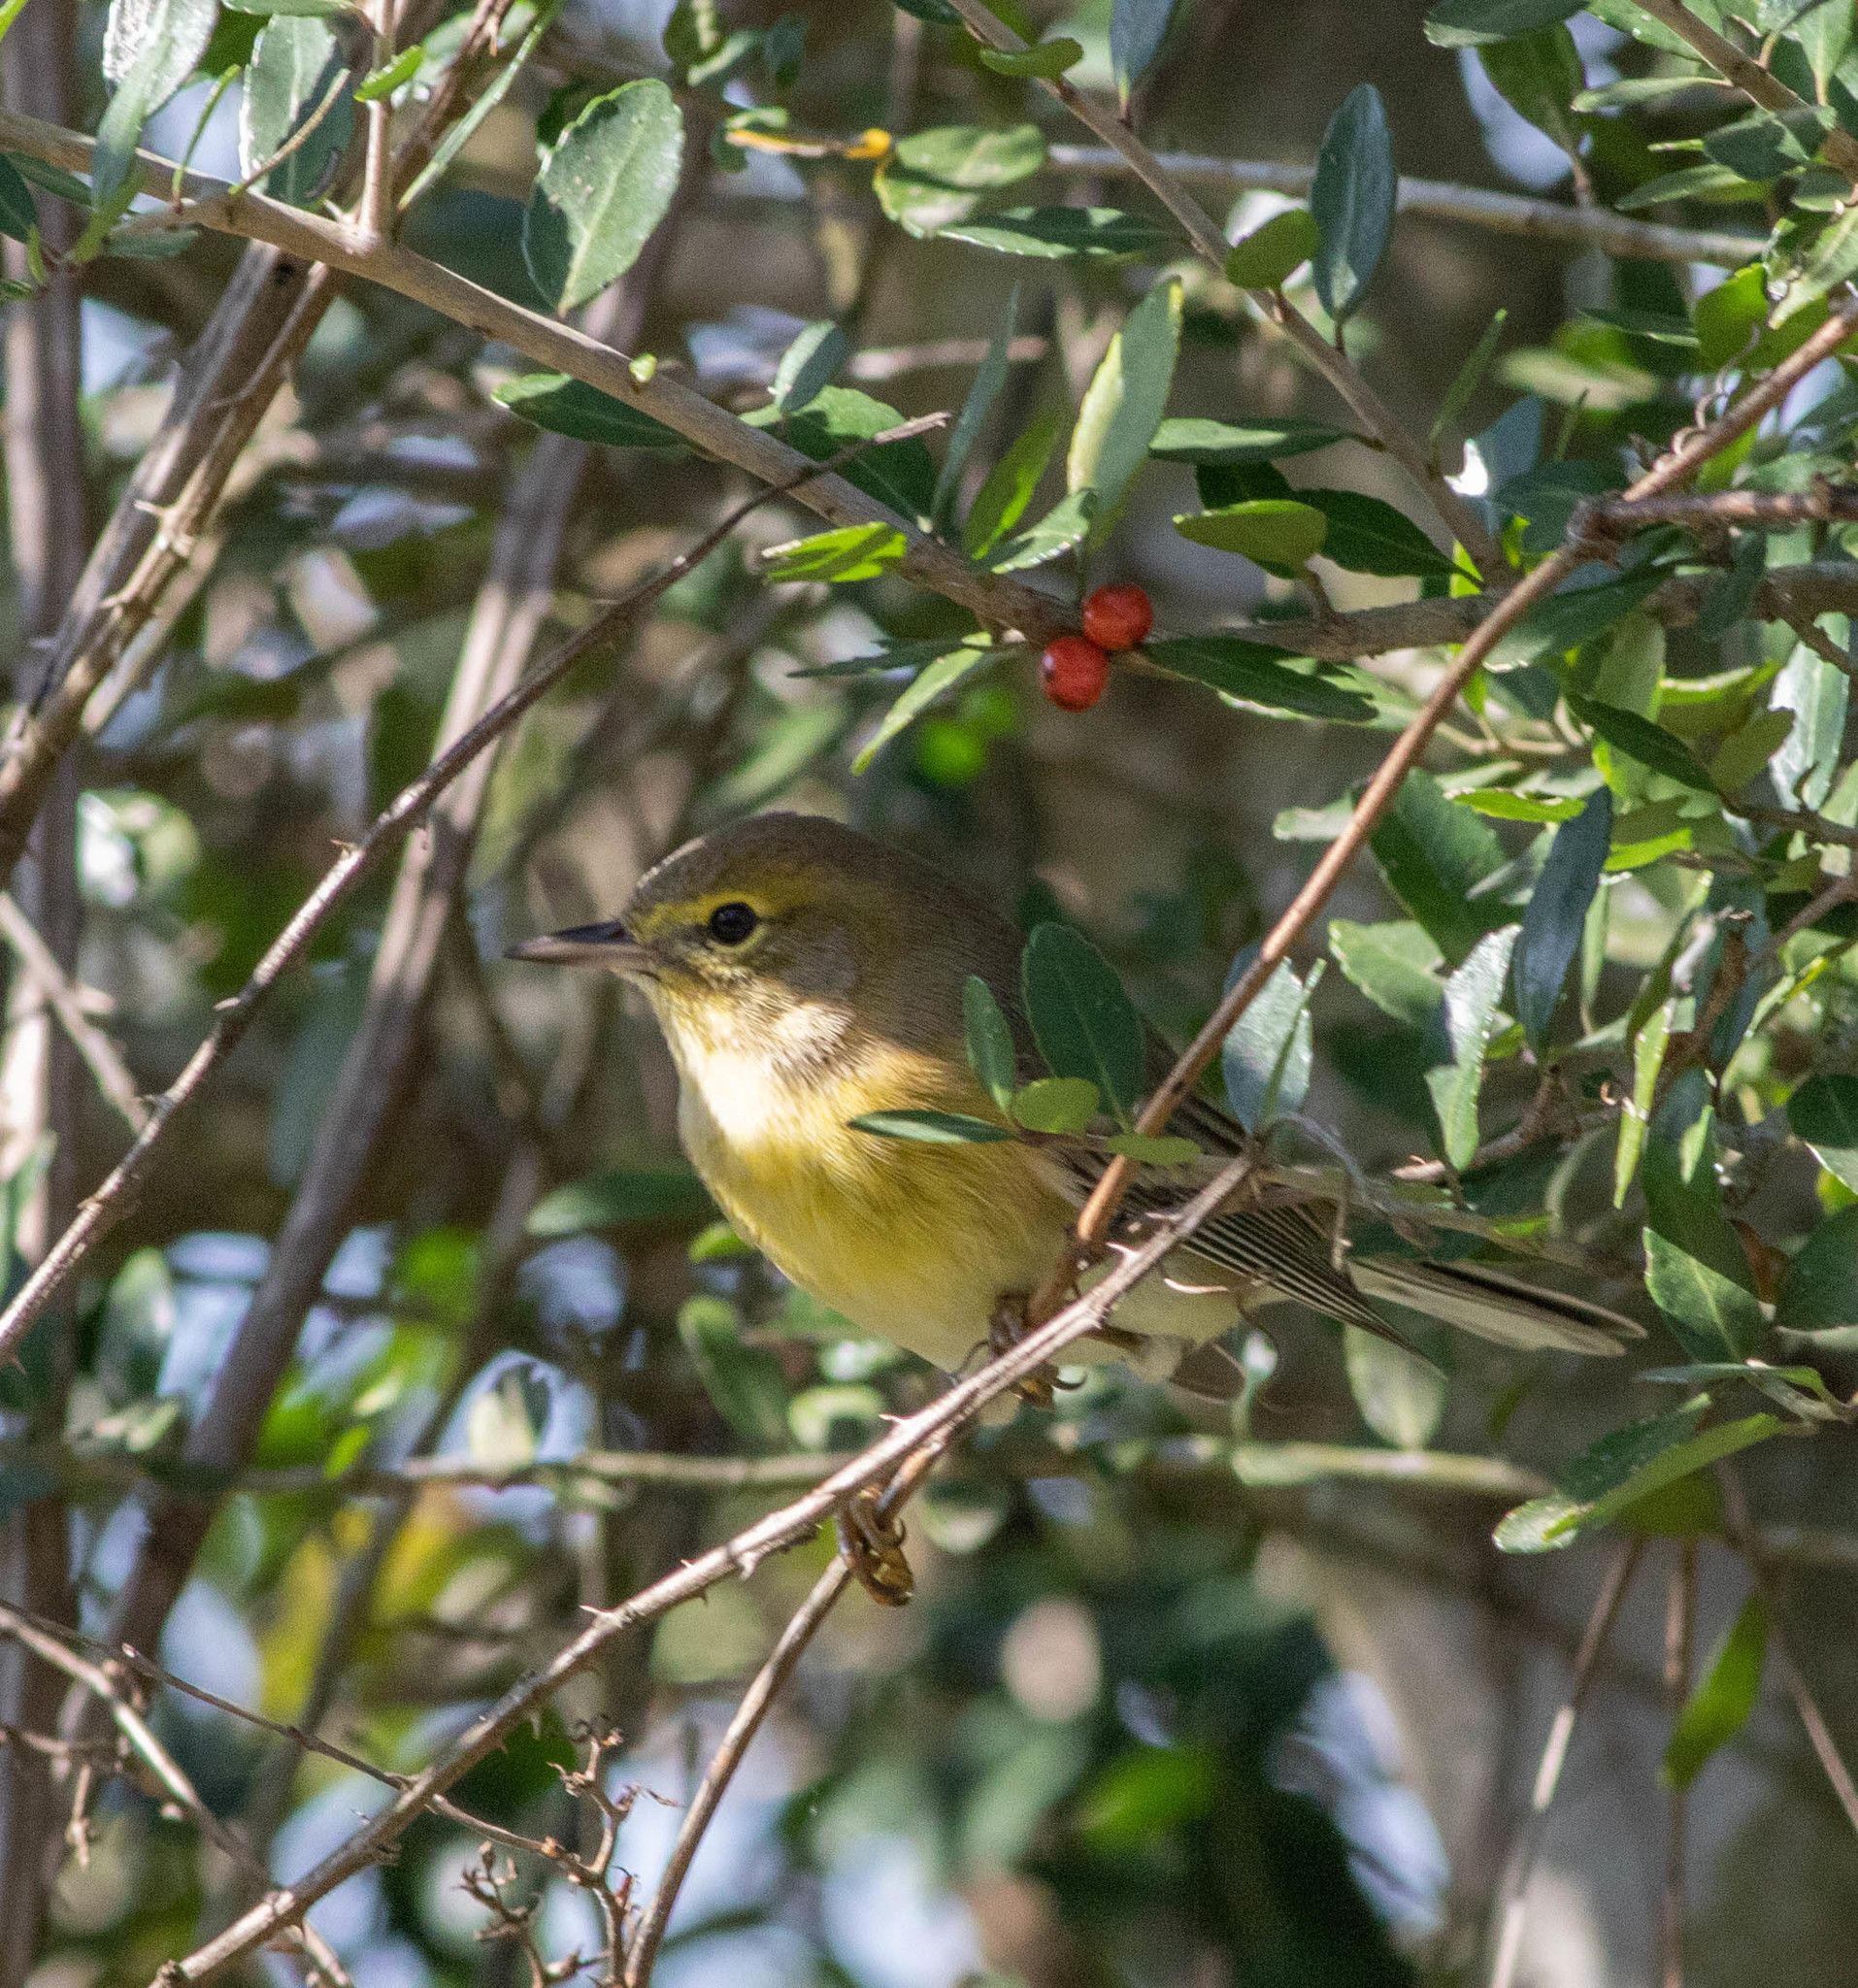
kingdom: Animalia
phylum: Chordata
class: Aves
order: Passeriformes
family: Parulidae
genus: Setophaga
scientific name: Setophaga pinus
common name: Pine warbler
